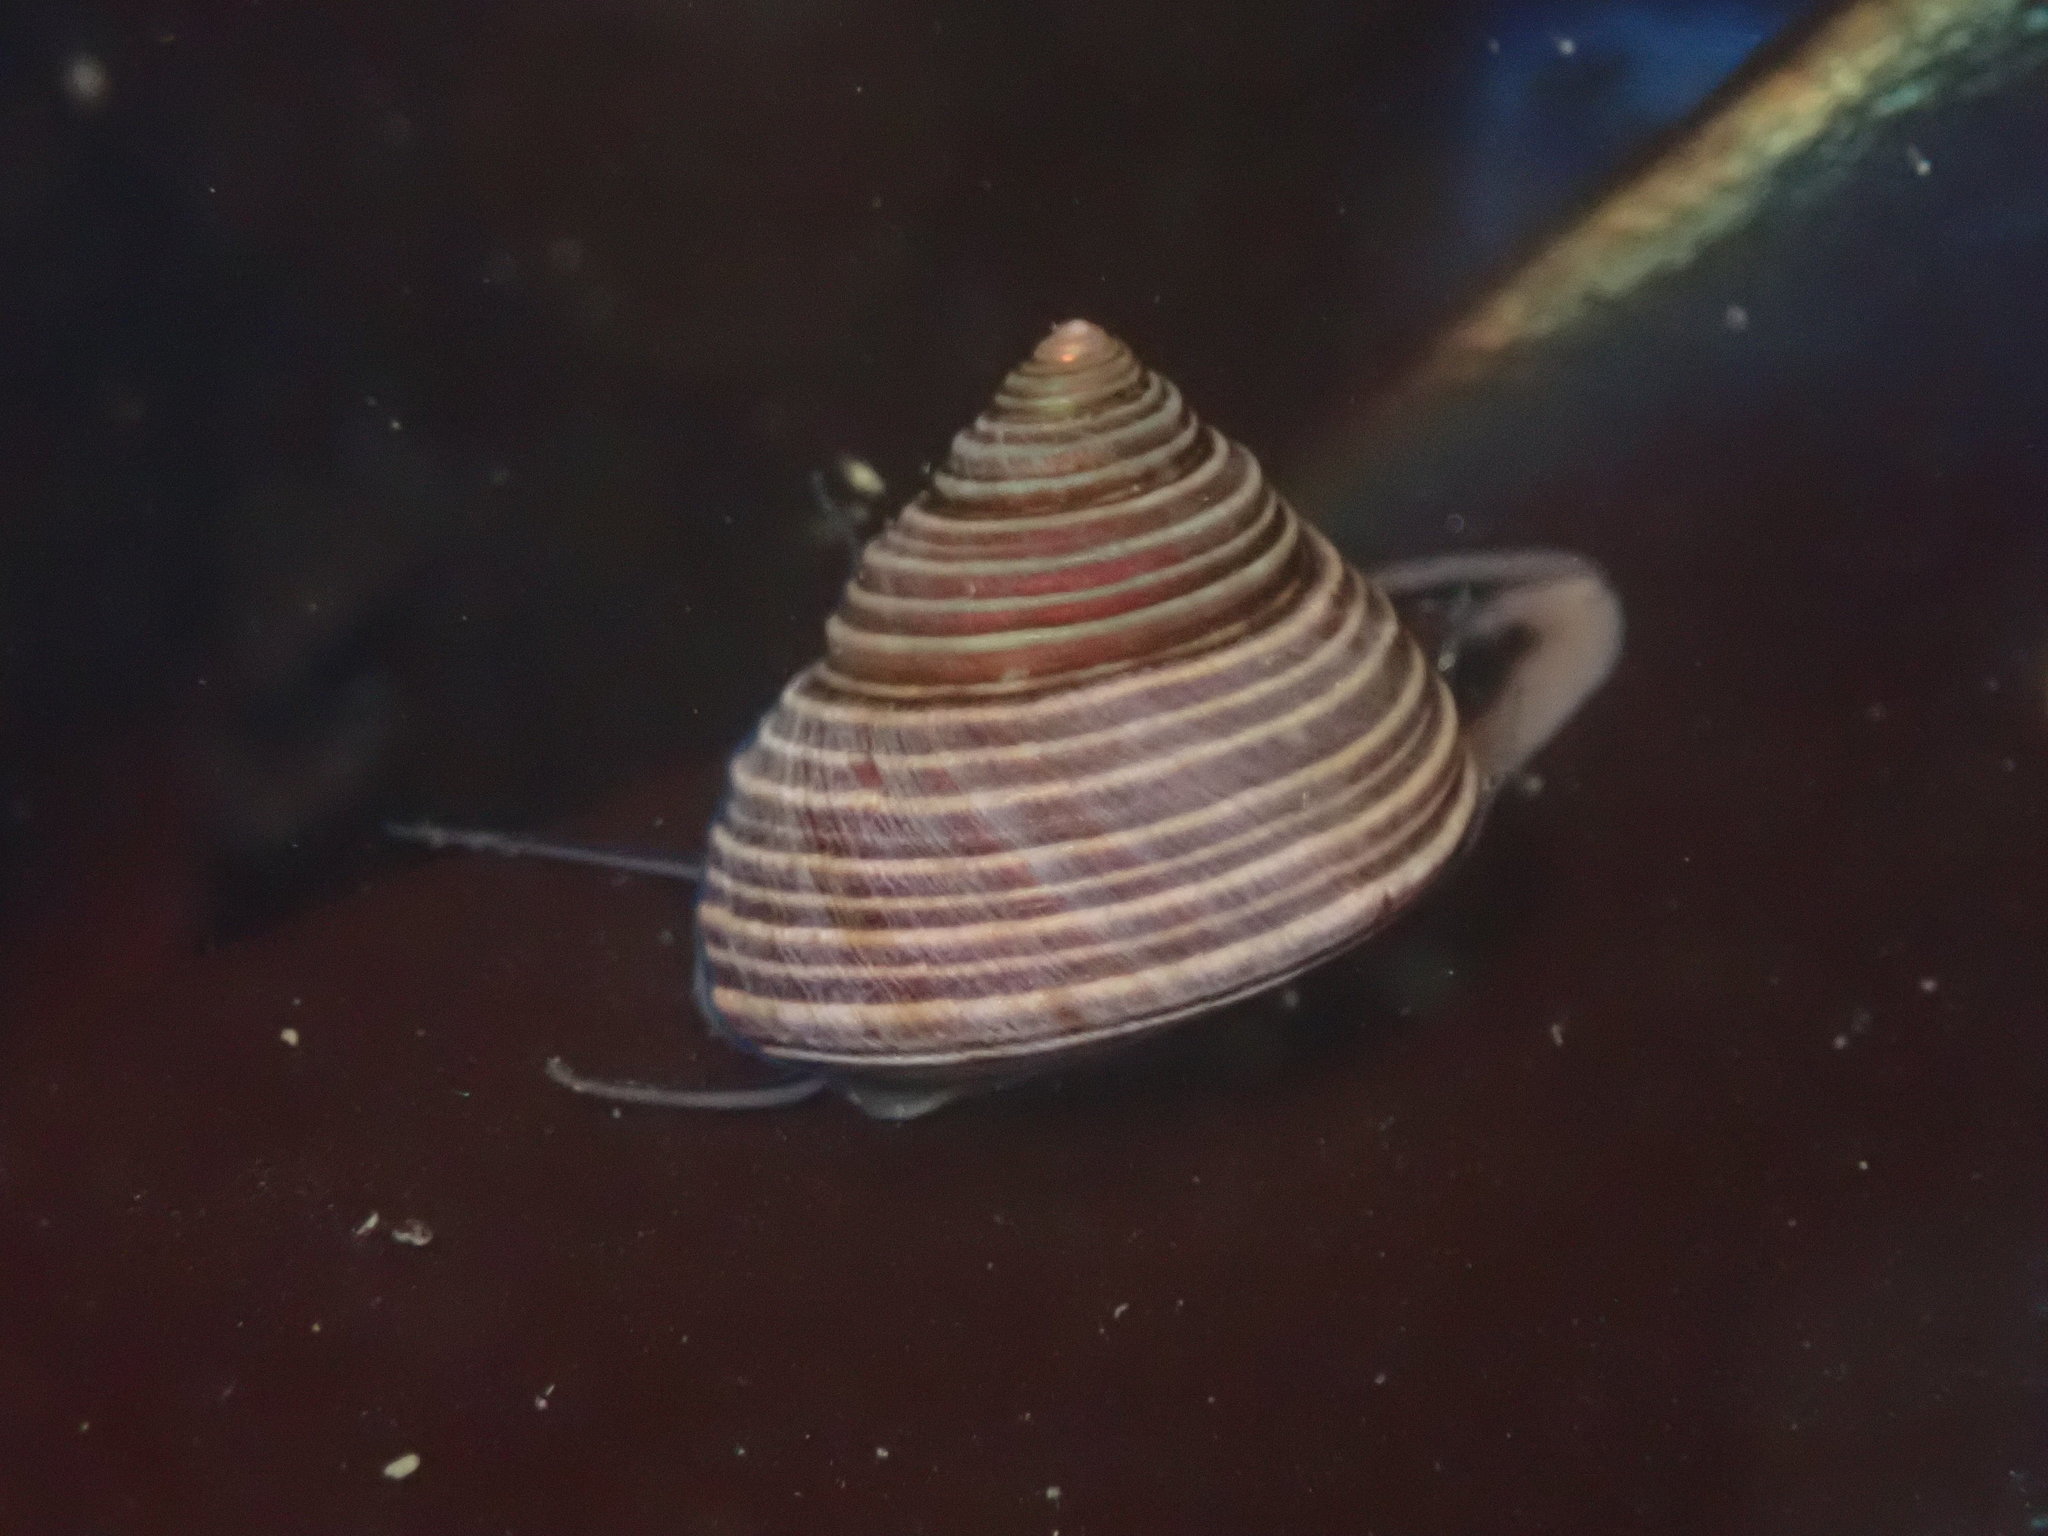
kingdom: Animalia
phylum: Mollusca
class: Gastropoda
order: Trochida
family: Calliostomatidae
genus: Calliostoma
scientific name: Calliostoma ligatum
